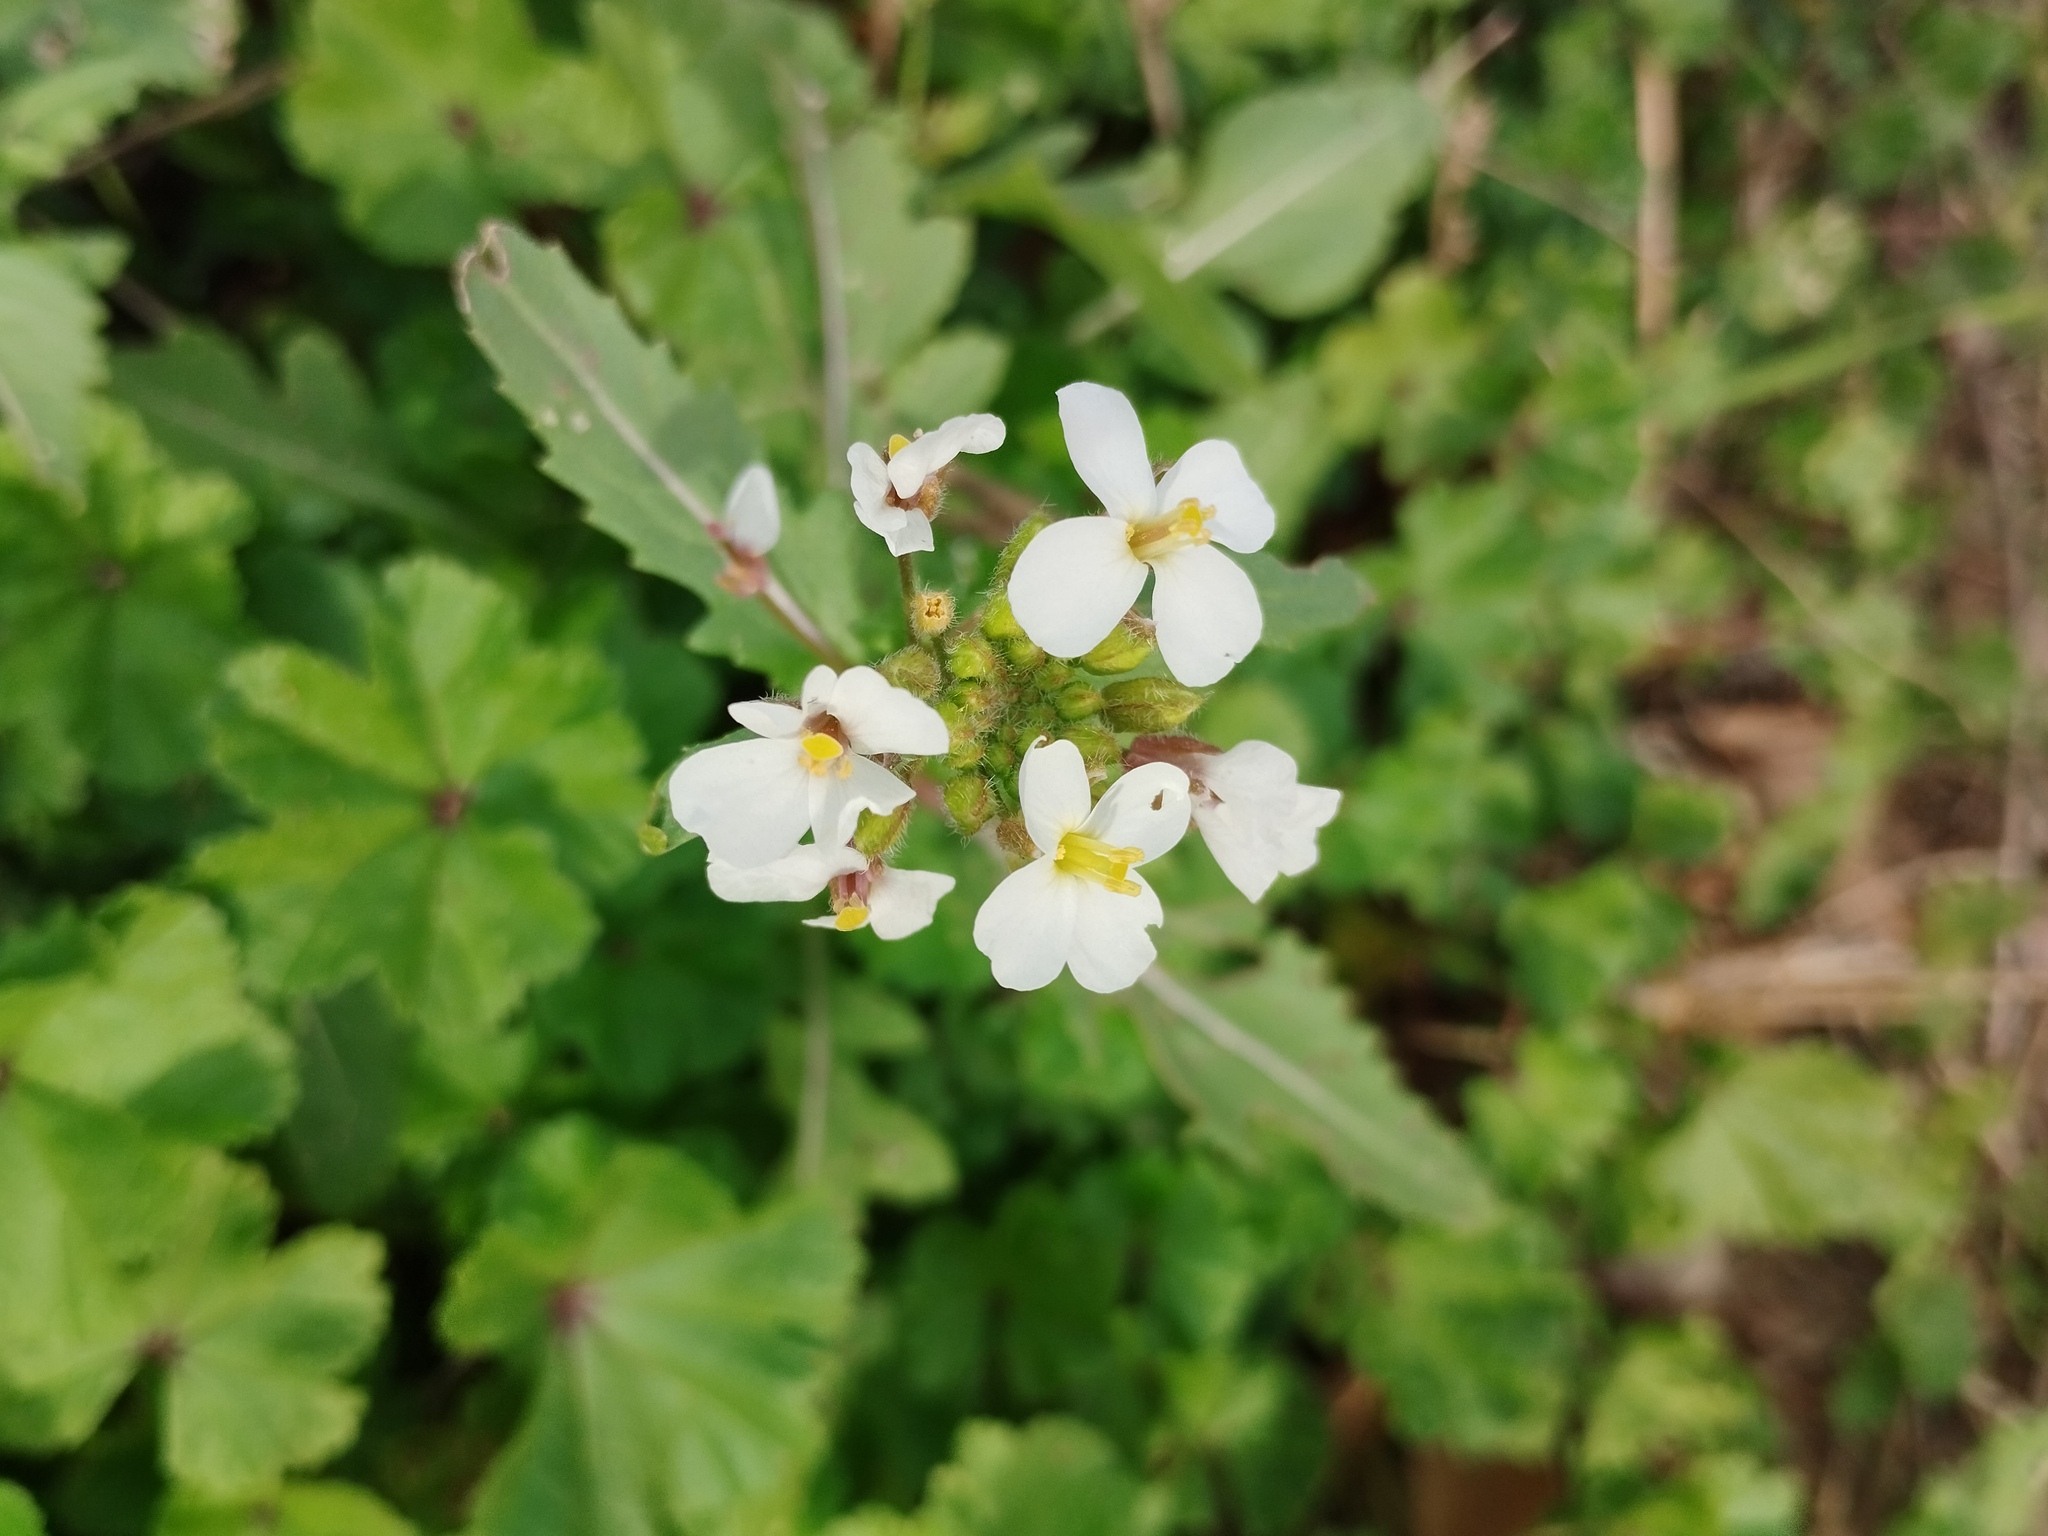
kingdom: Plantae
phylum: Tracheophyta
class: Magnoliopsida
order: Brassicales
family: Brassicaceae
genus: Diplotaxis
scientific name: Diplotaxis erucoides
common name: White rocket
